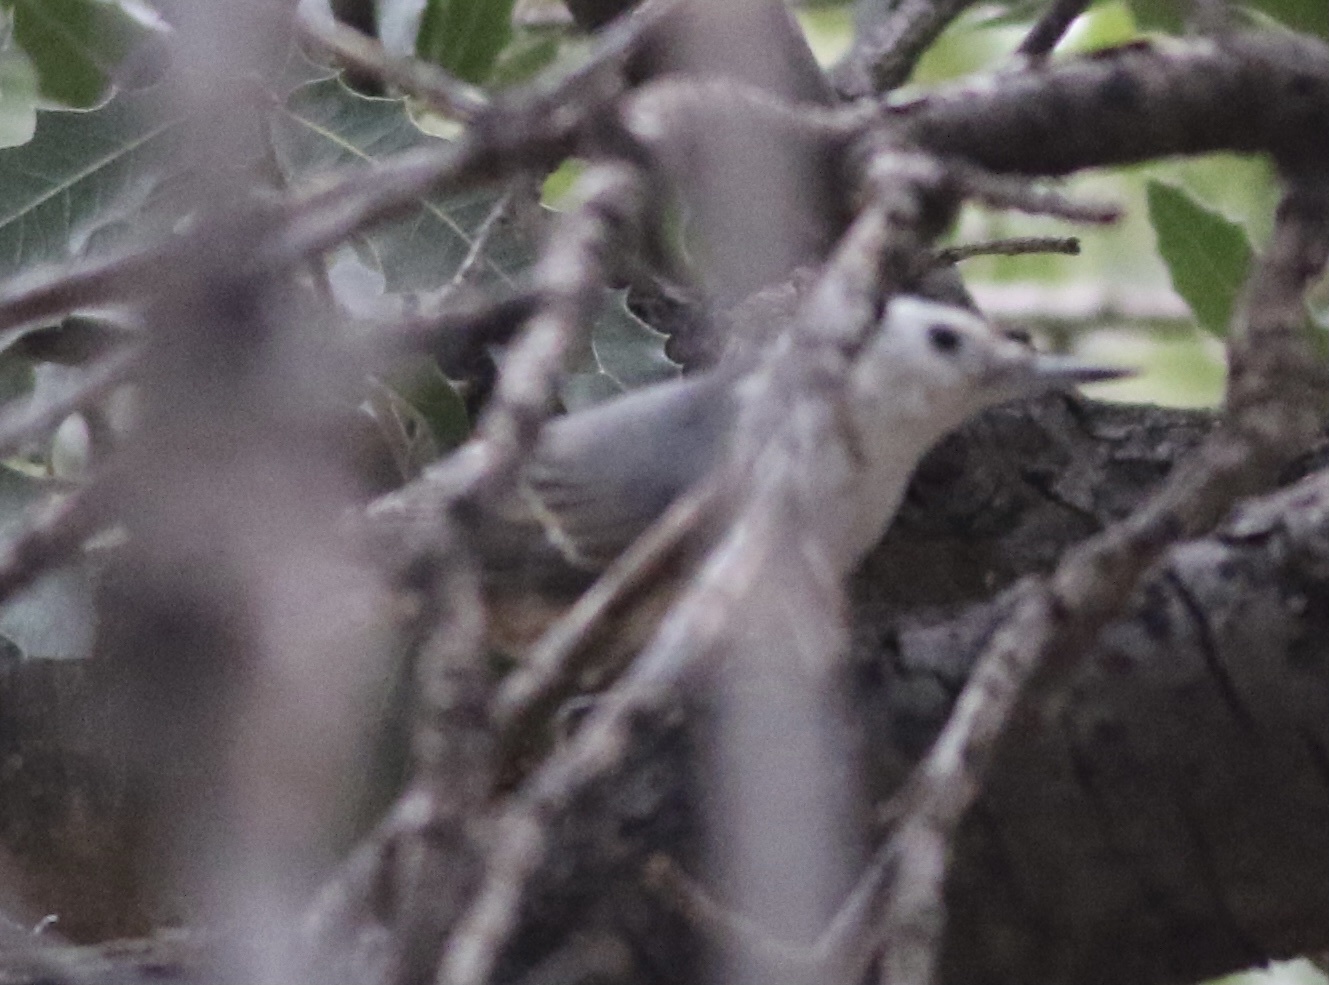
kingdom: Animalia
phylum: Chordata
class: Aves
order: Passeriformes
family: Sittidae
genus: Sitta
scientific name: Sitta carolinensis
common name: White-breasted nuthatch
